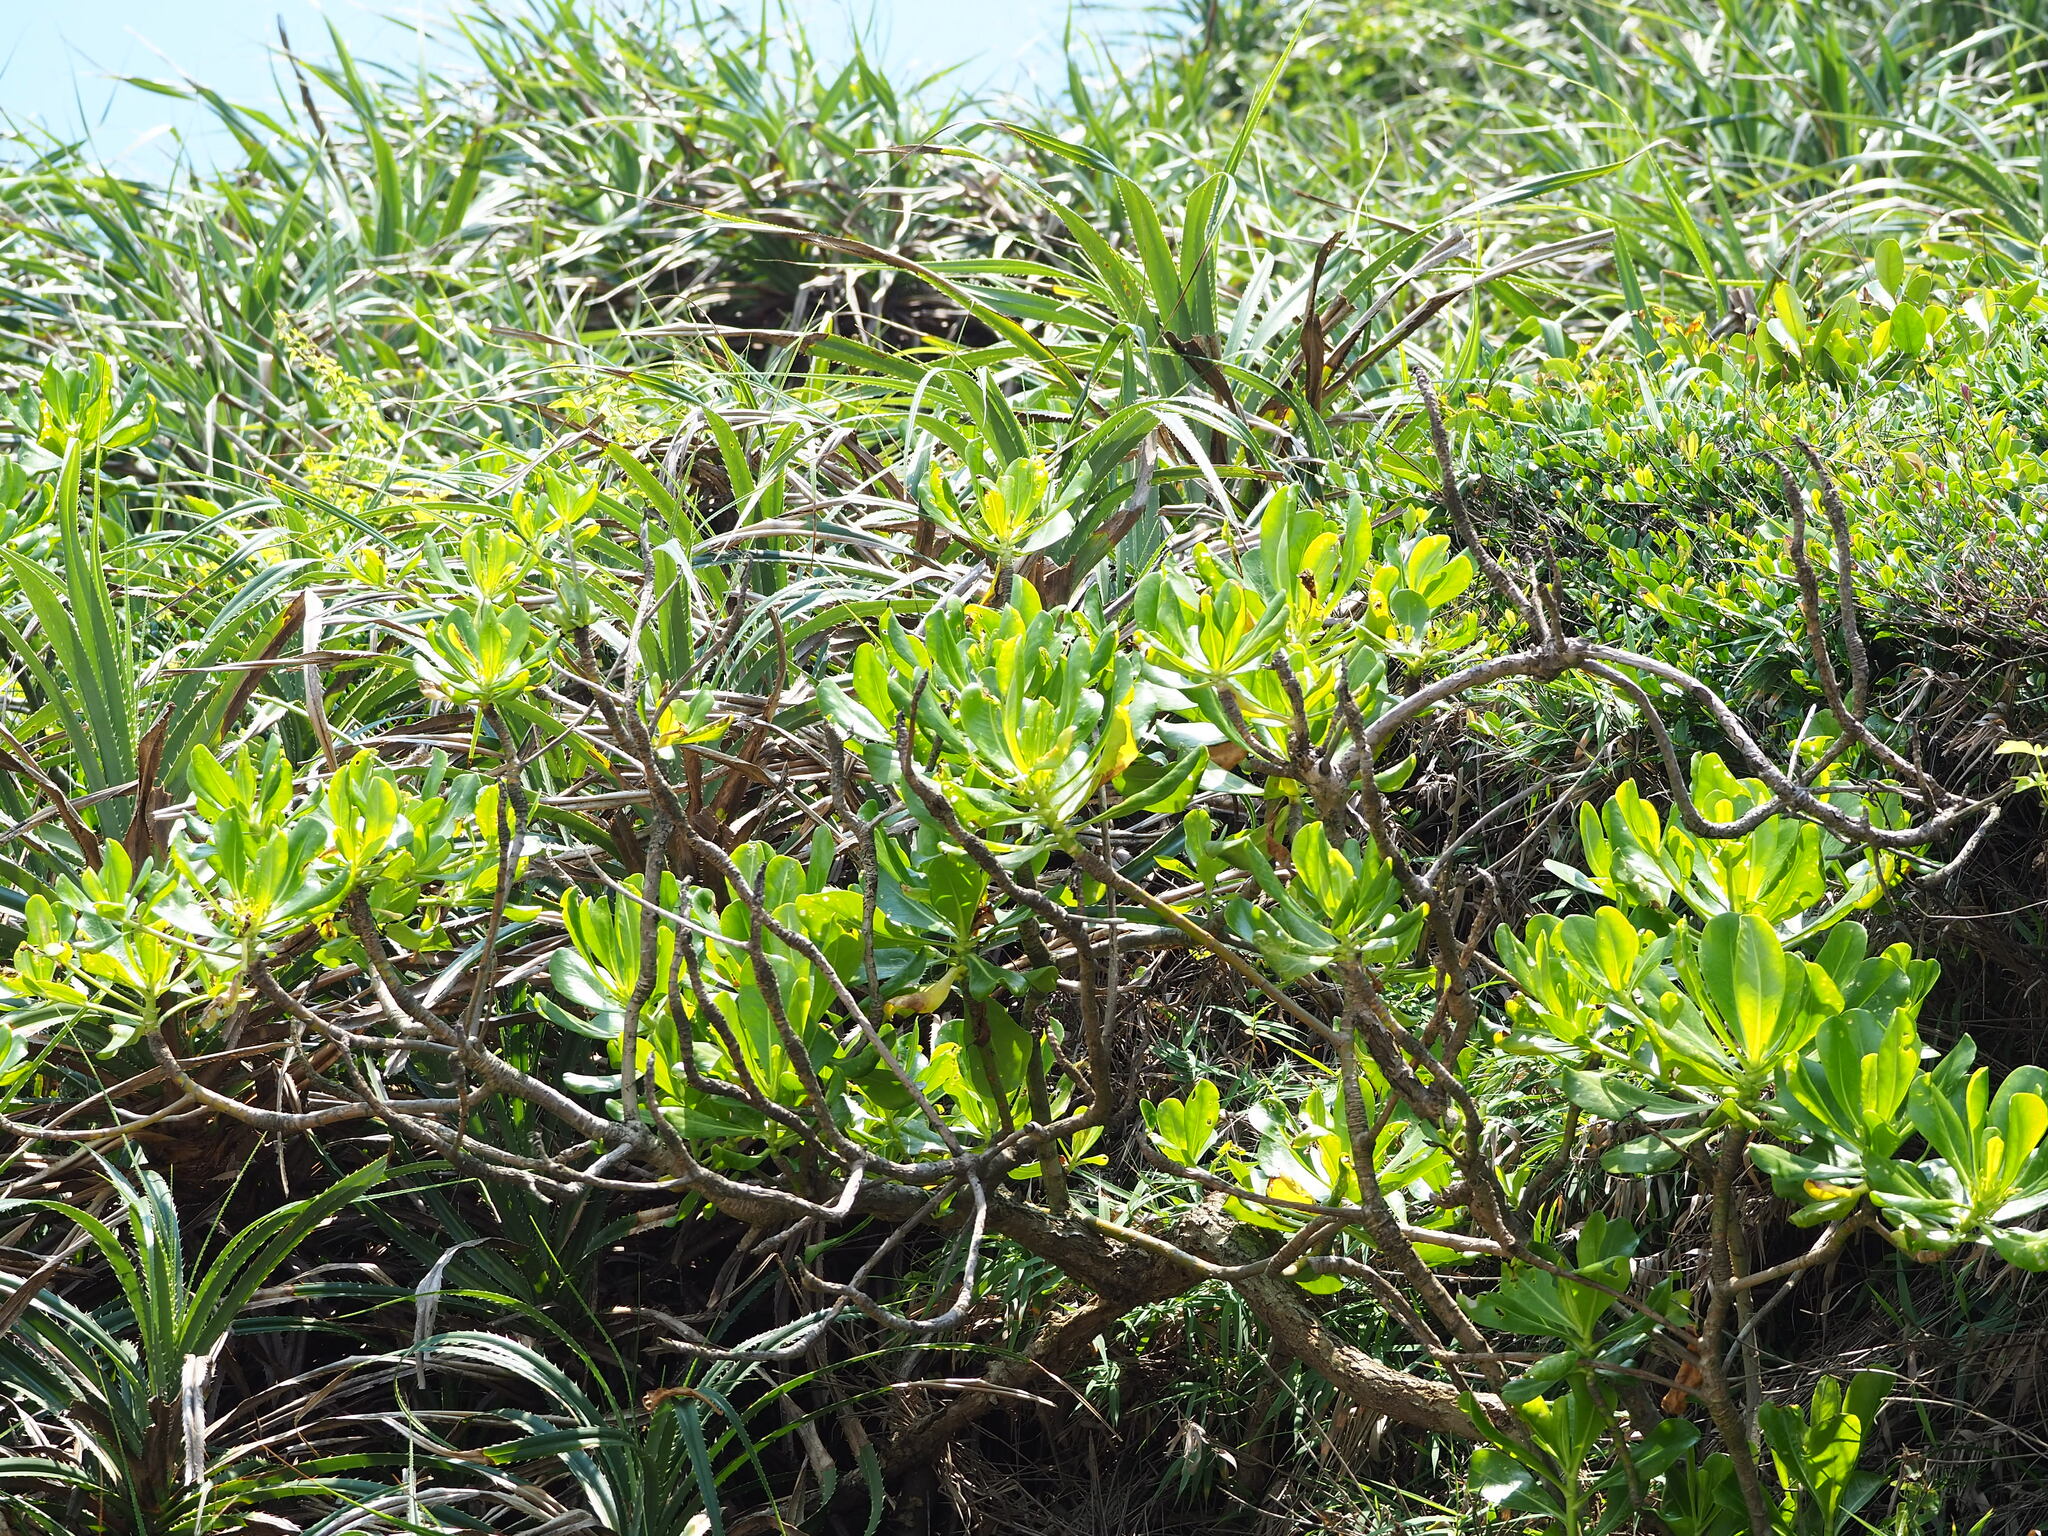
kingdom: Plantae
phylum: Tracheophyta
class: Magnoliopsida
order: Asterales
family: Goodeniaceae
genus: Scaevola
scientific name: Scaevola taccada
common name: Sea lettucetree
